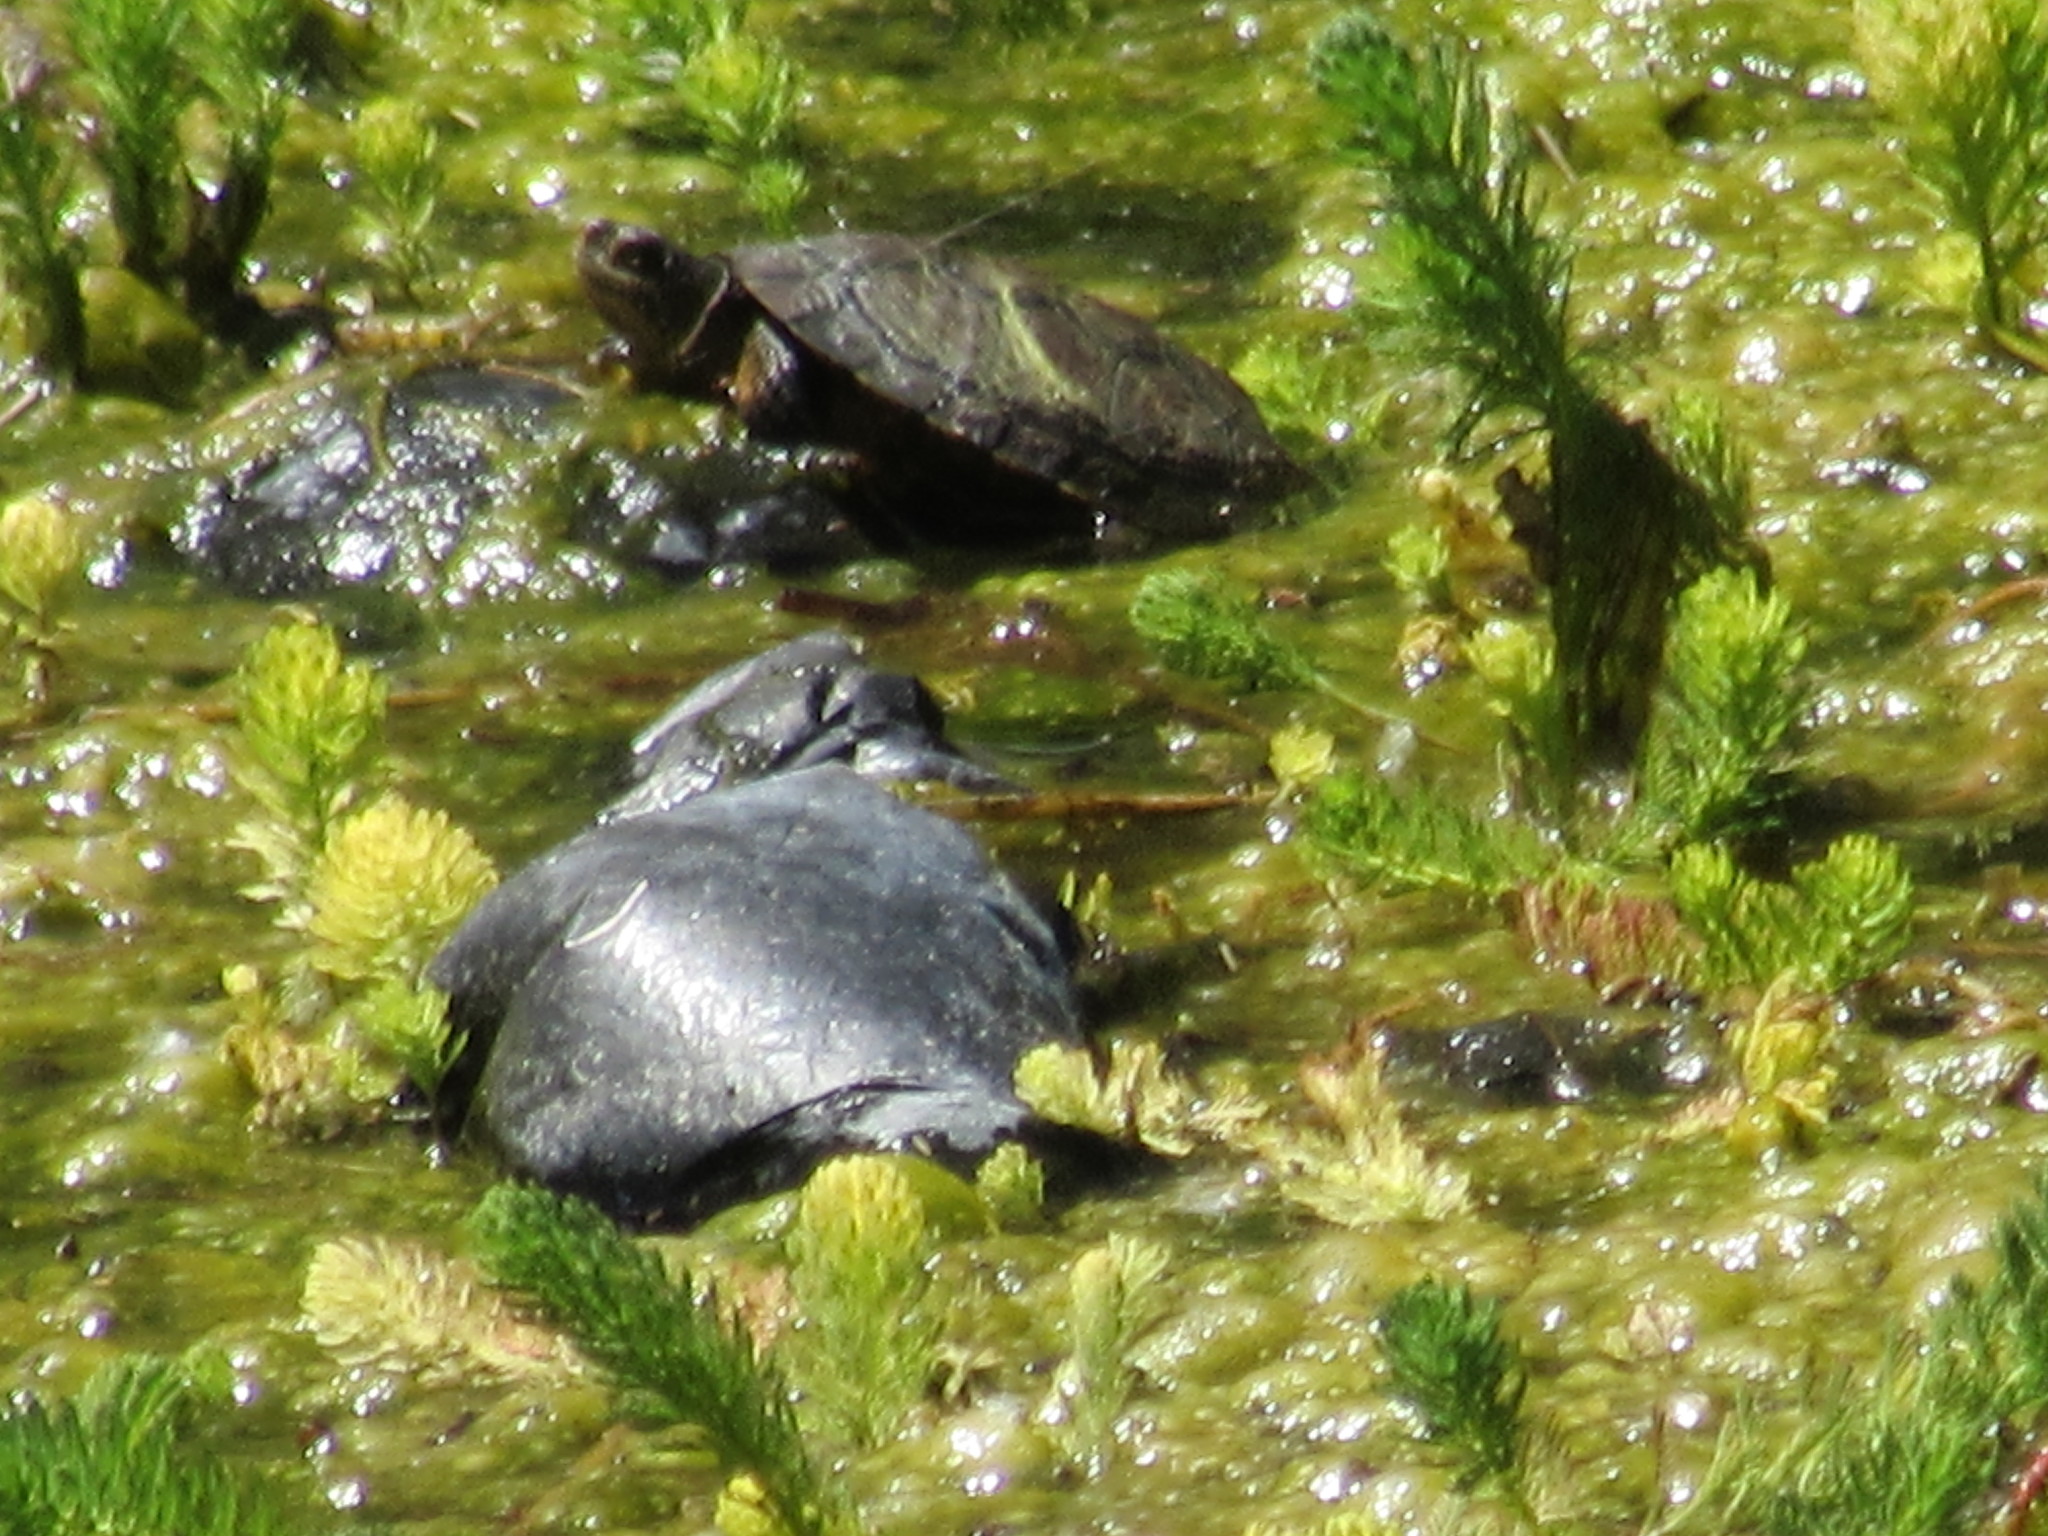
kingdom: Animalia
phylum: Chordata
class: Testudines
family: Emydidae
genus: Actinemys
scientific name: Actinemys marmorata
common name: Western pond turtle
